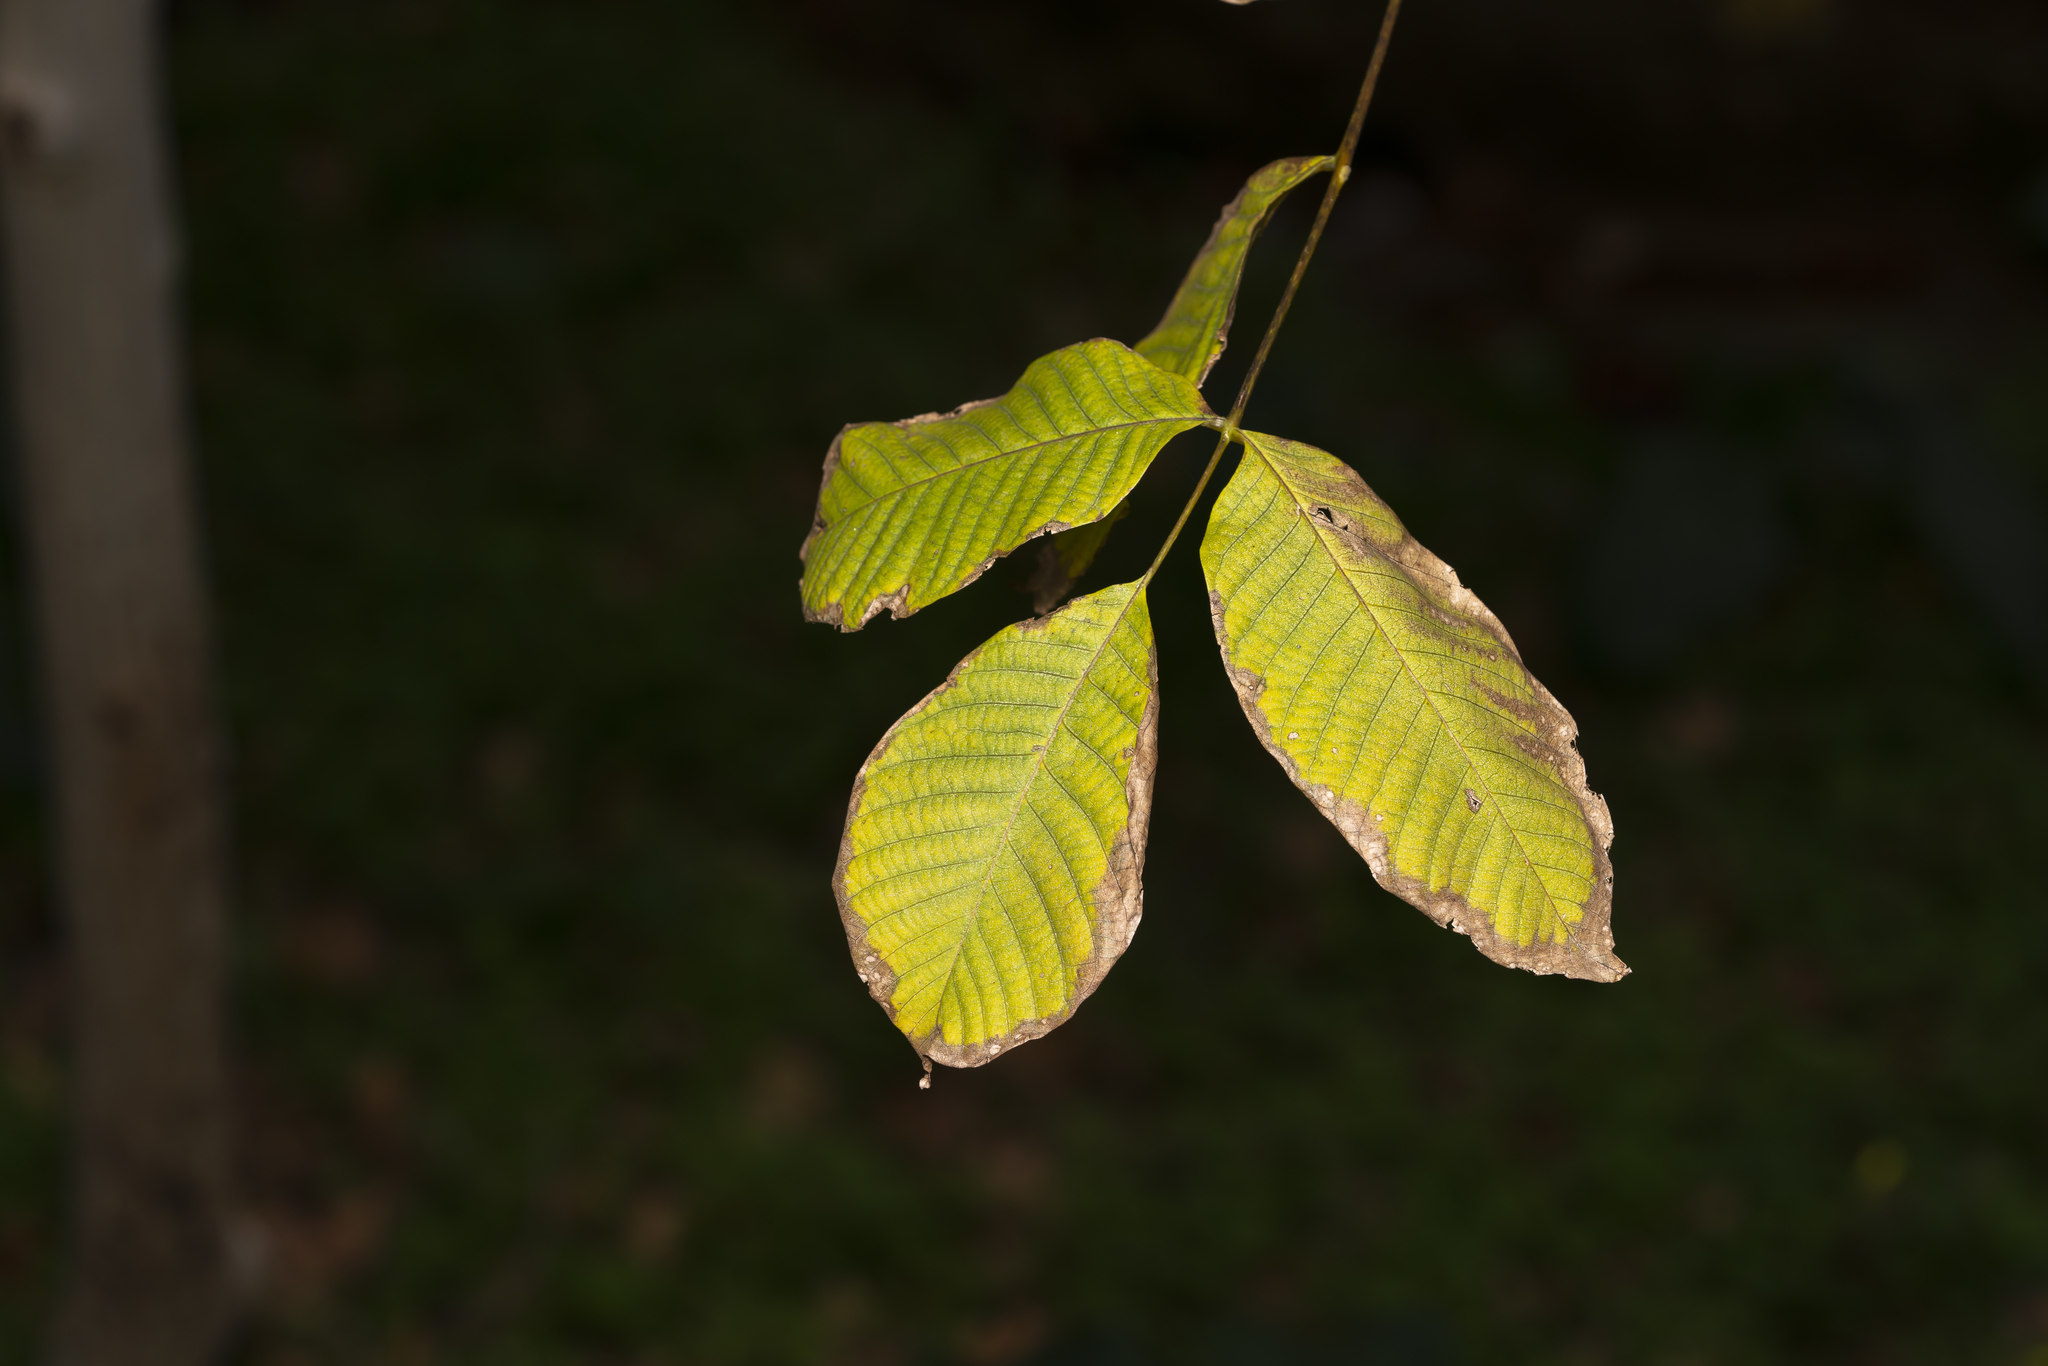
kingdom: Plantae
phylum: Tracheophyta
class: Magnoliopsida
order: Fagales
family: Juglandaceae
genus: Juglans
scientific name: Juglans regia
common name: Walnut
